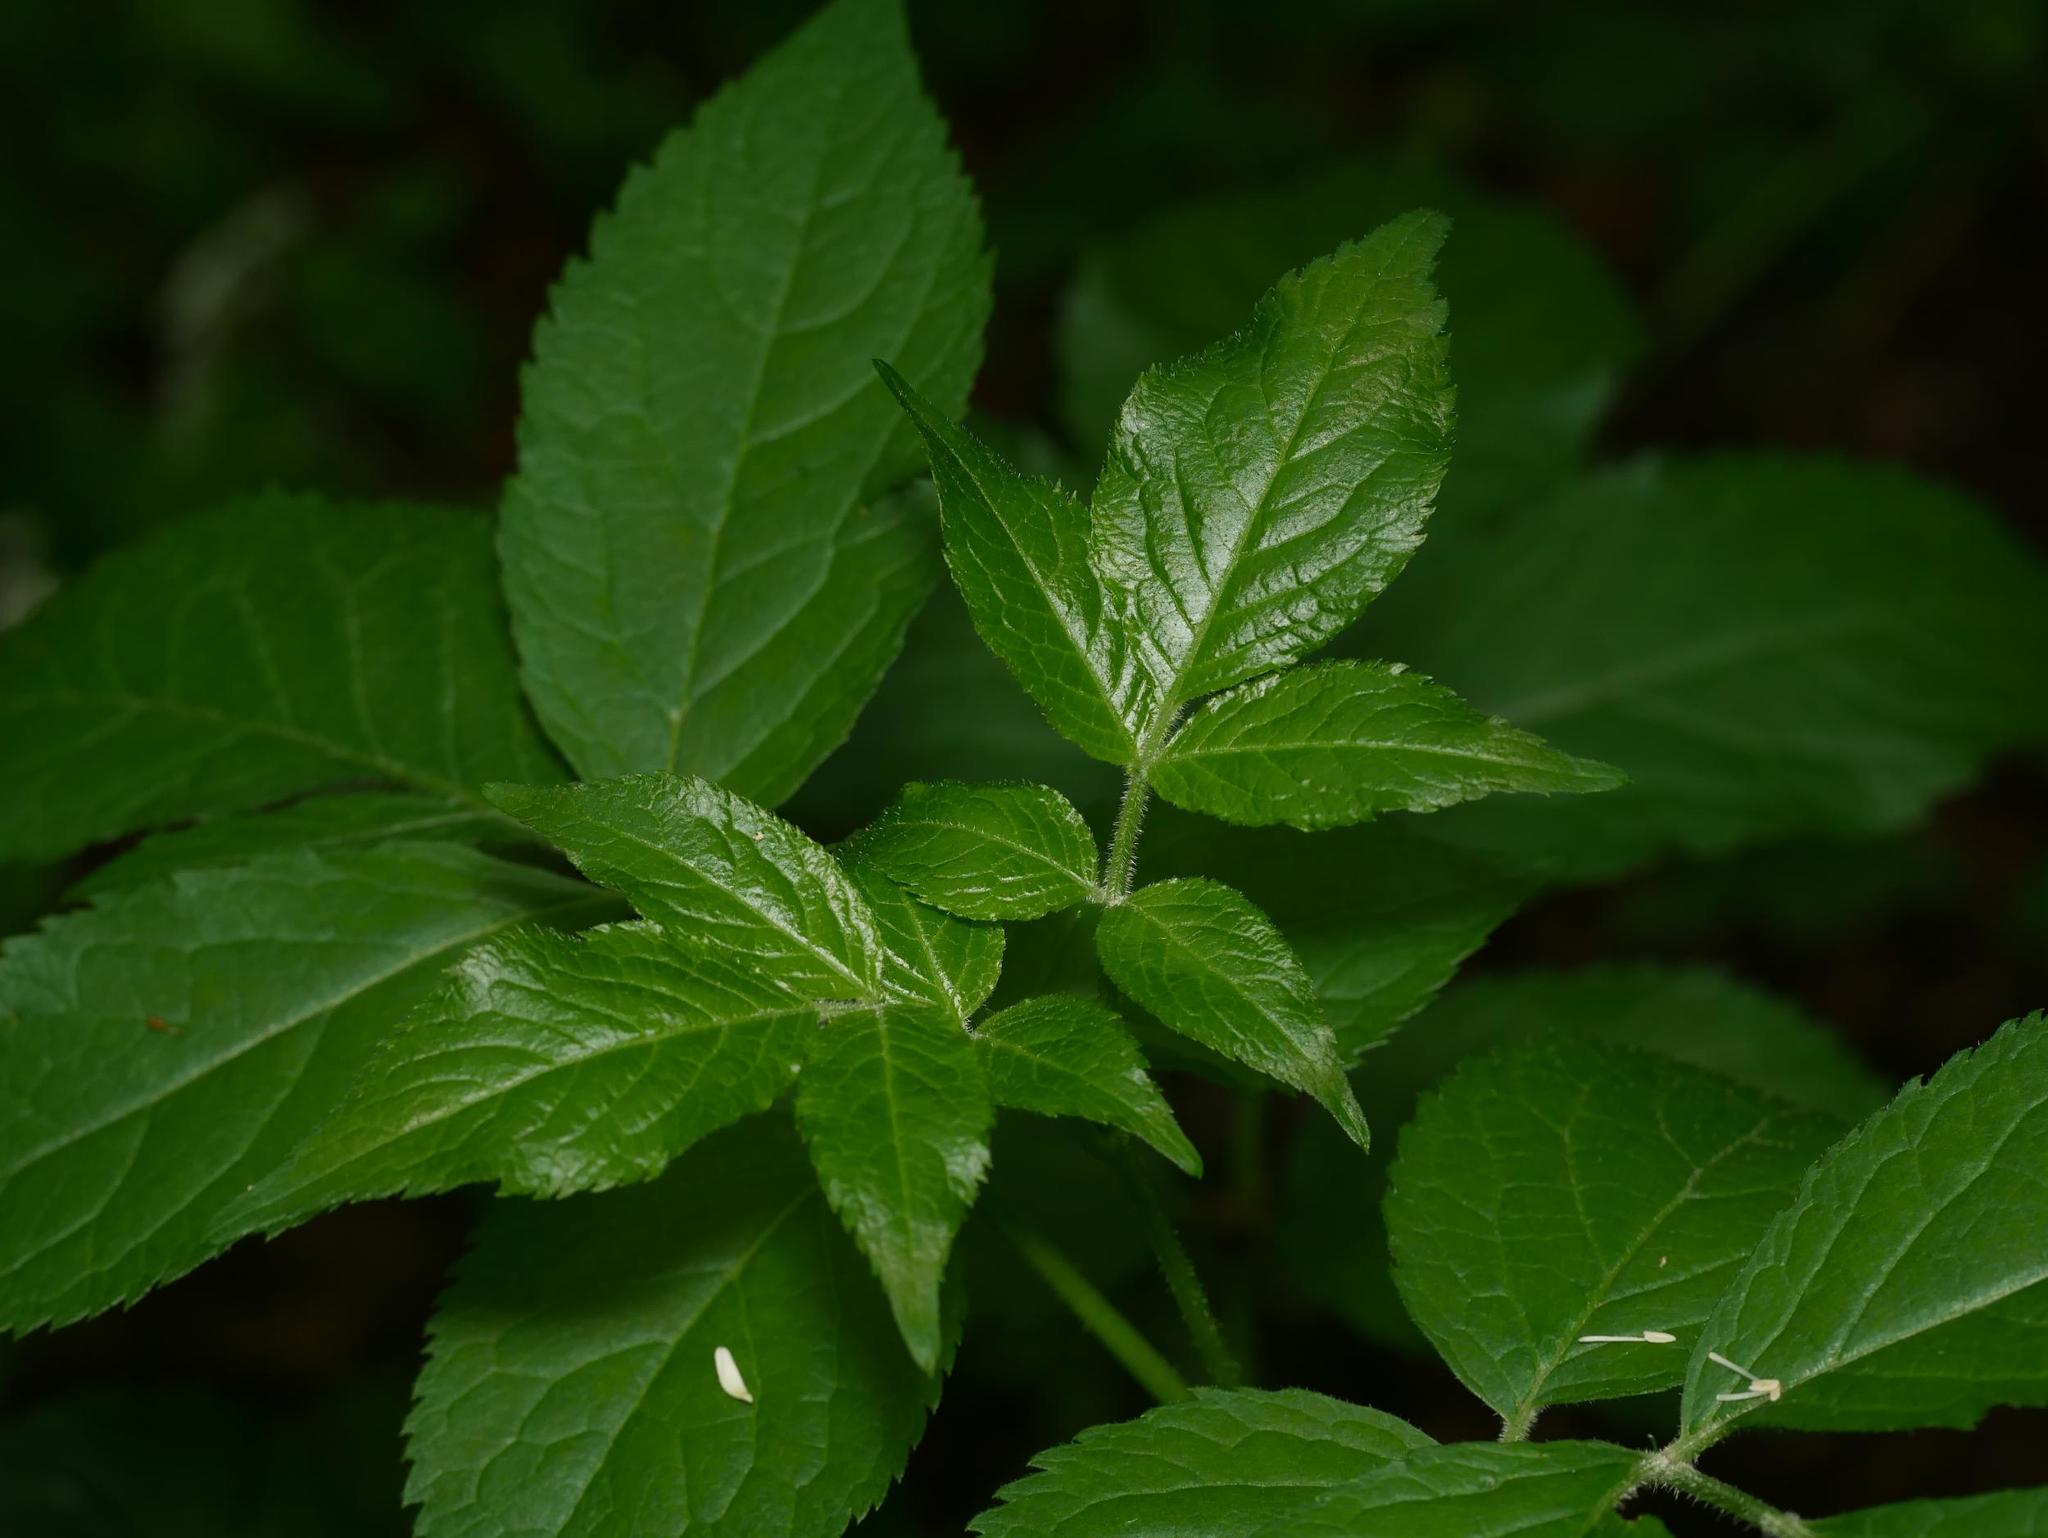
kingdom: Plantae
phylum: Tracheophyta
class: Magnoliopsida
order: Dipsacales
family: Viburnaceae
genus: Sambucus
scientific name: Sambucus nigra
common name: Elder
